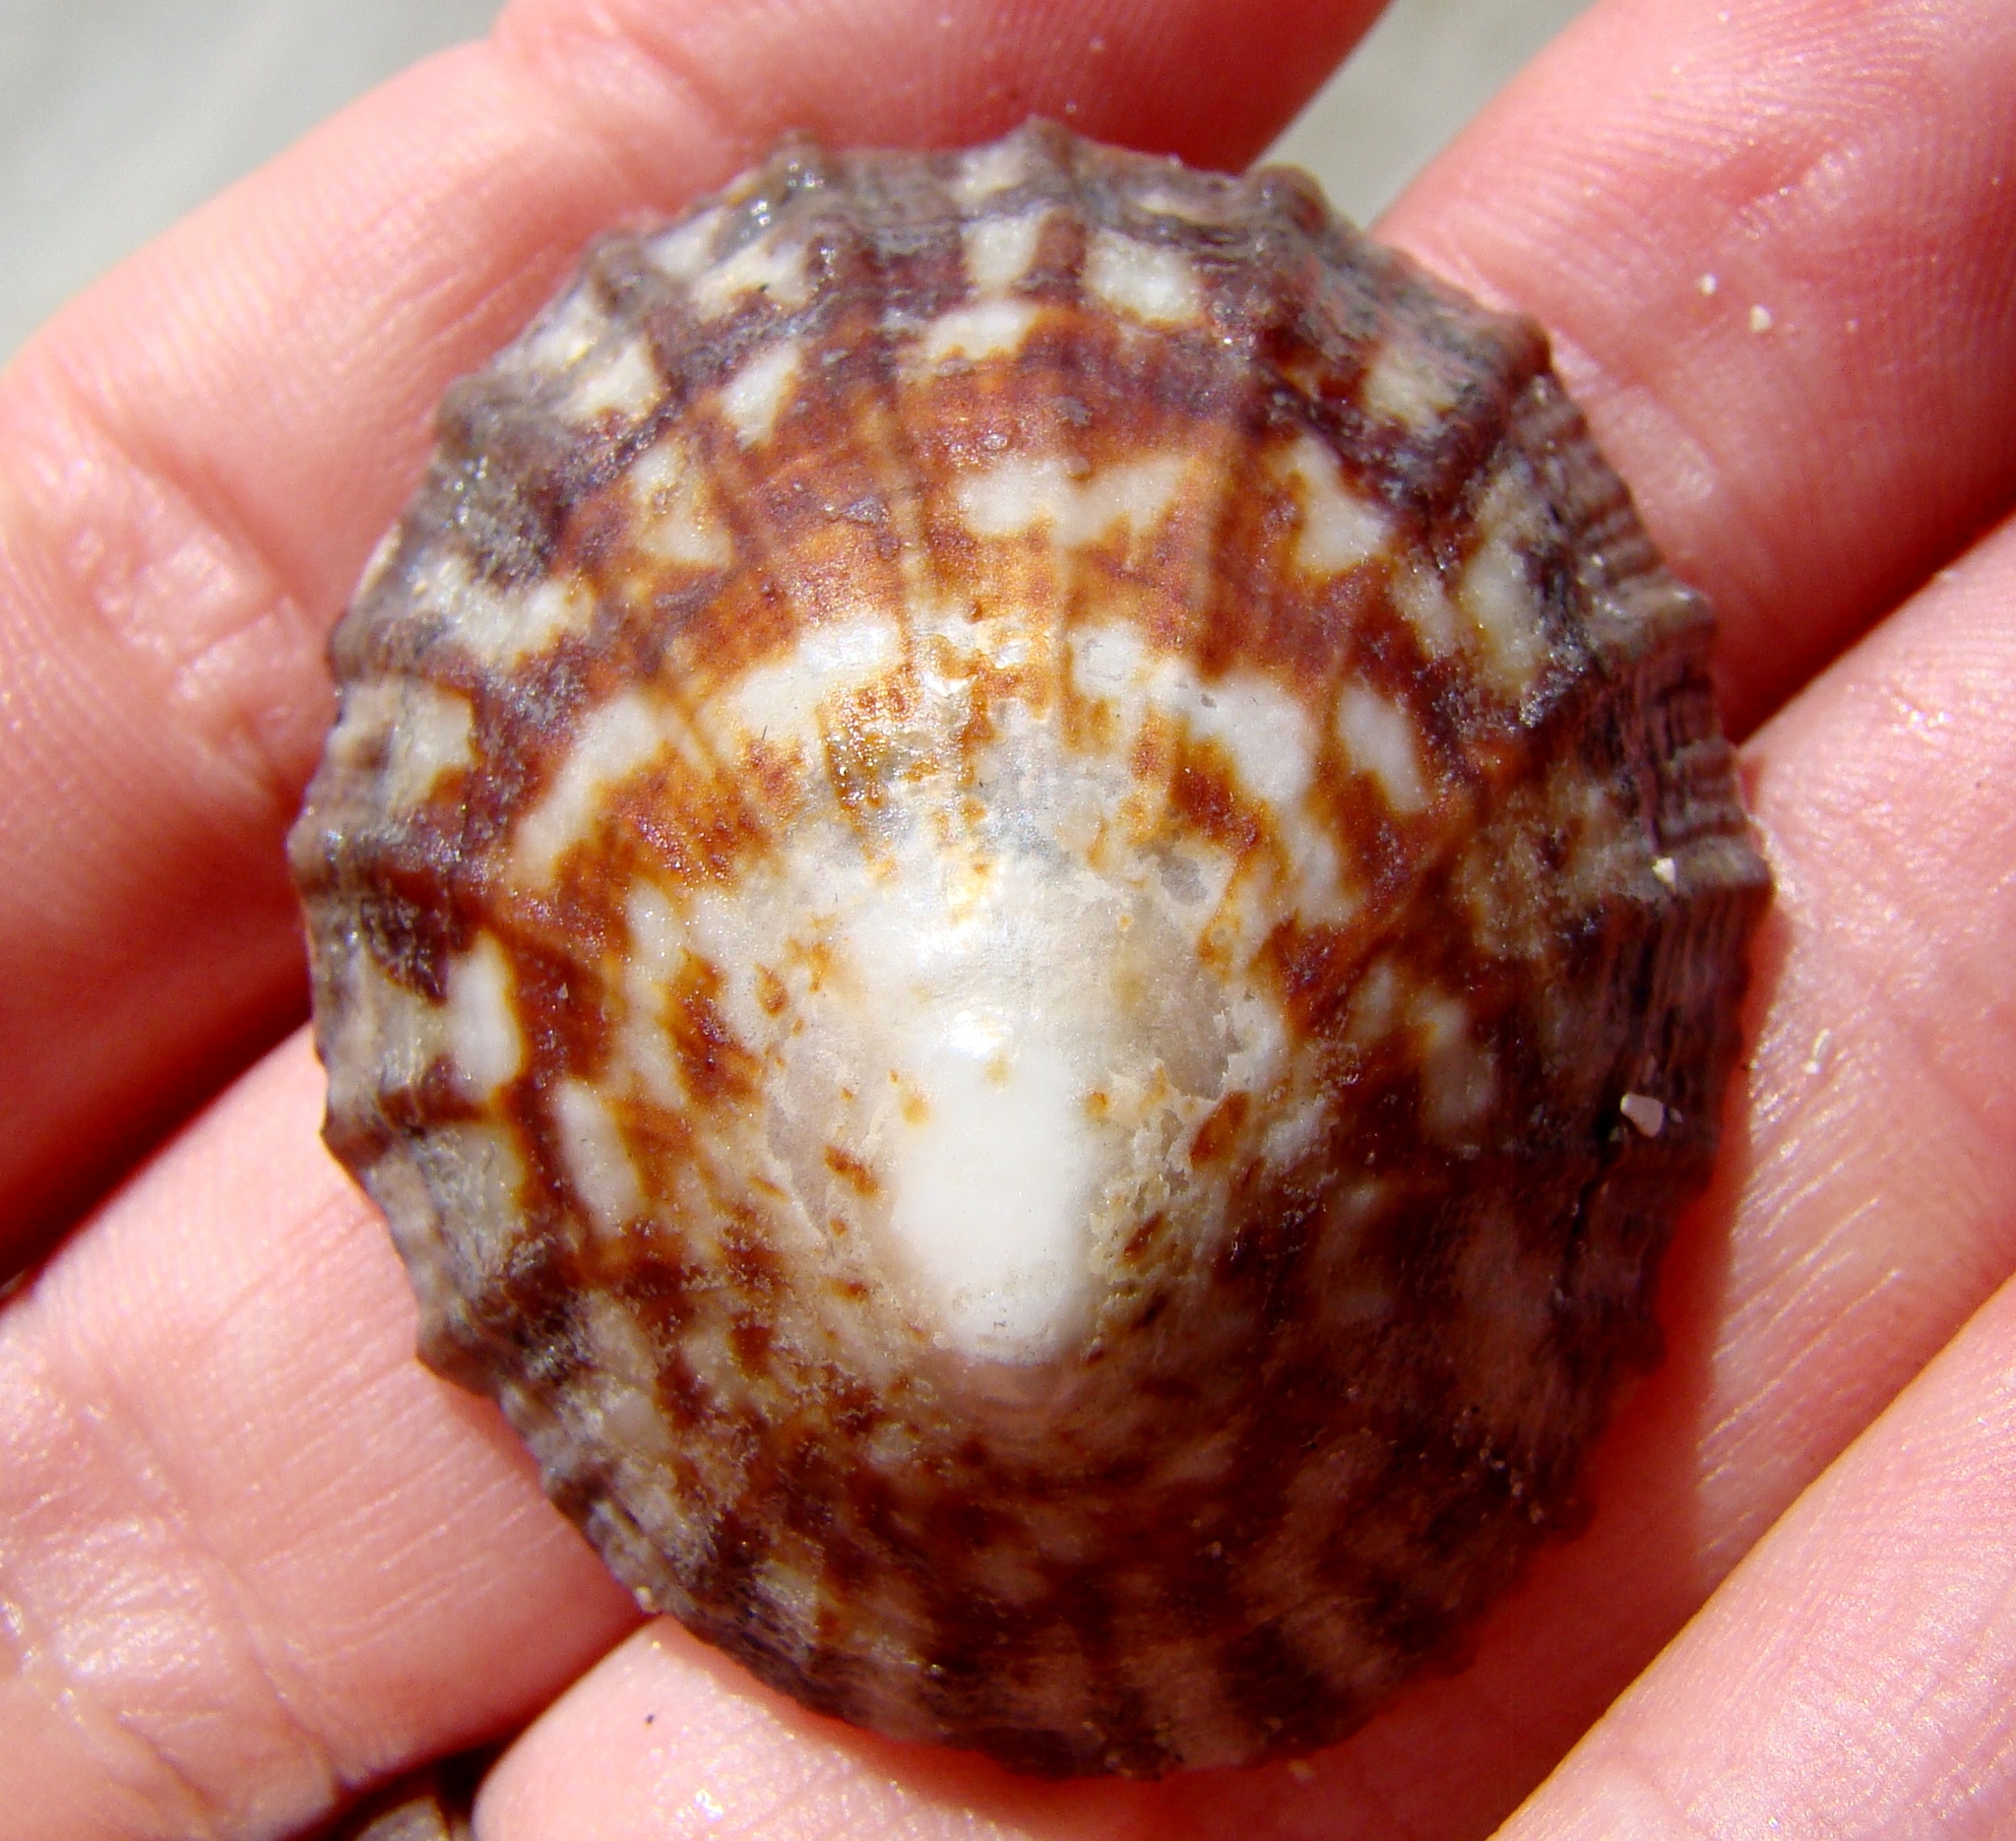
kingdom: Animalia
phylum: Mollusca
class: Gastropoda
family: Nacellidae
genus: Cellana
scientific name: Cellana radians
